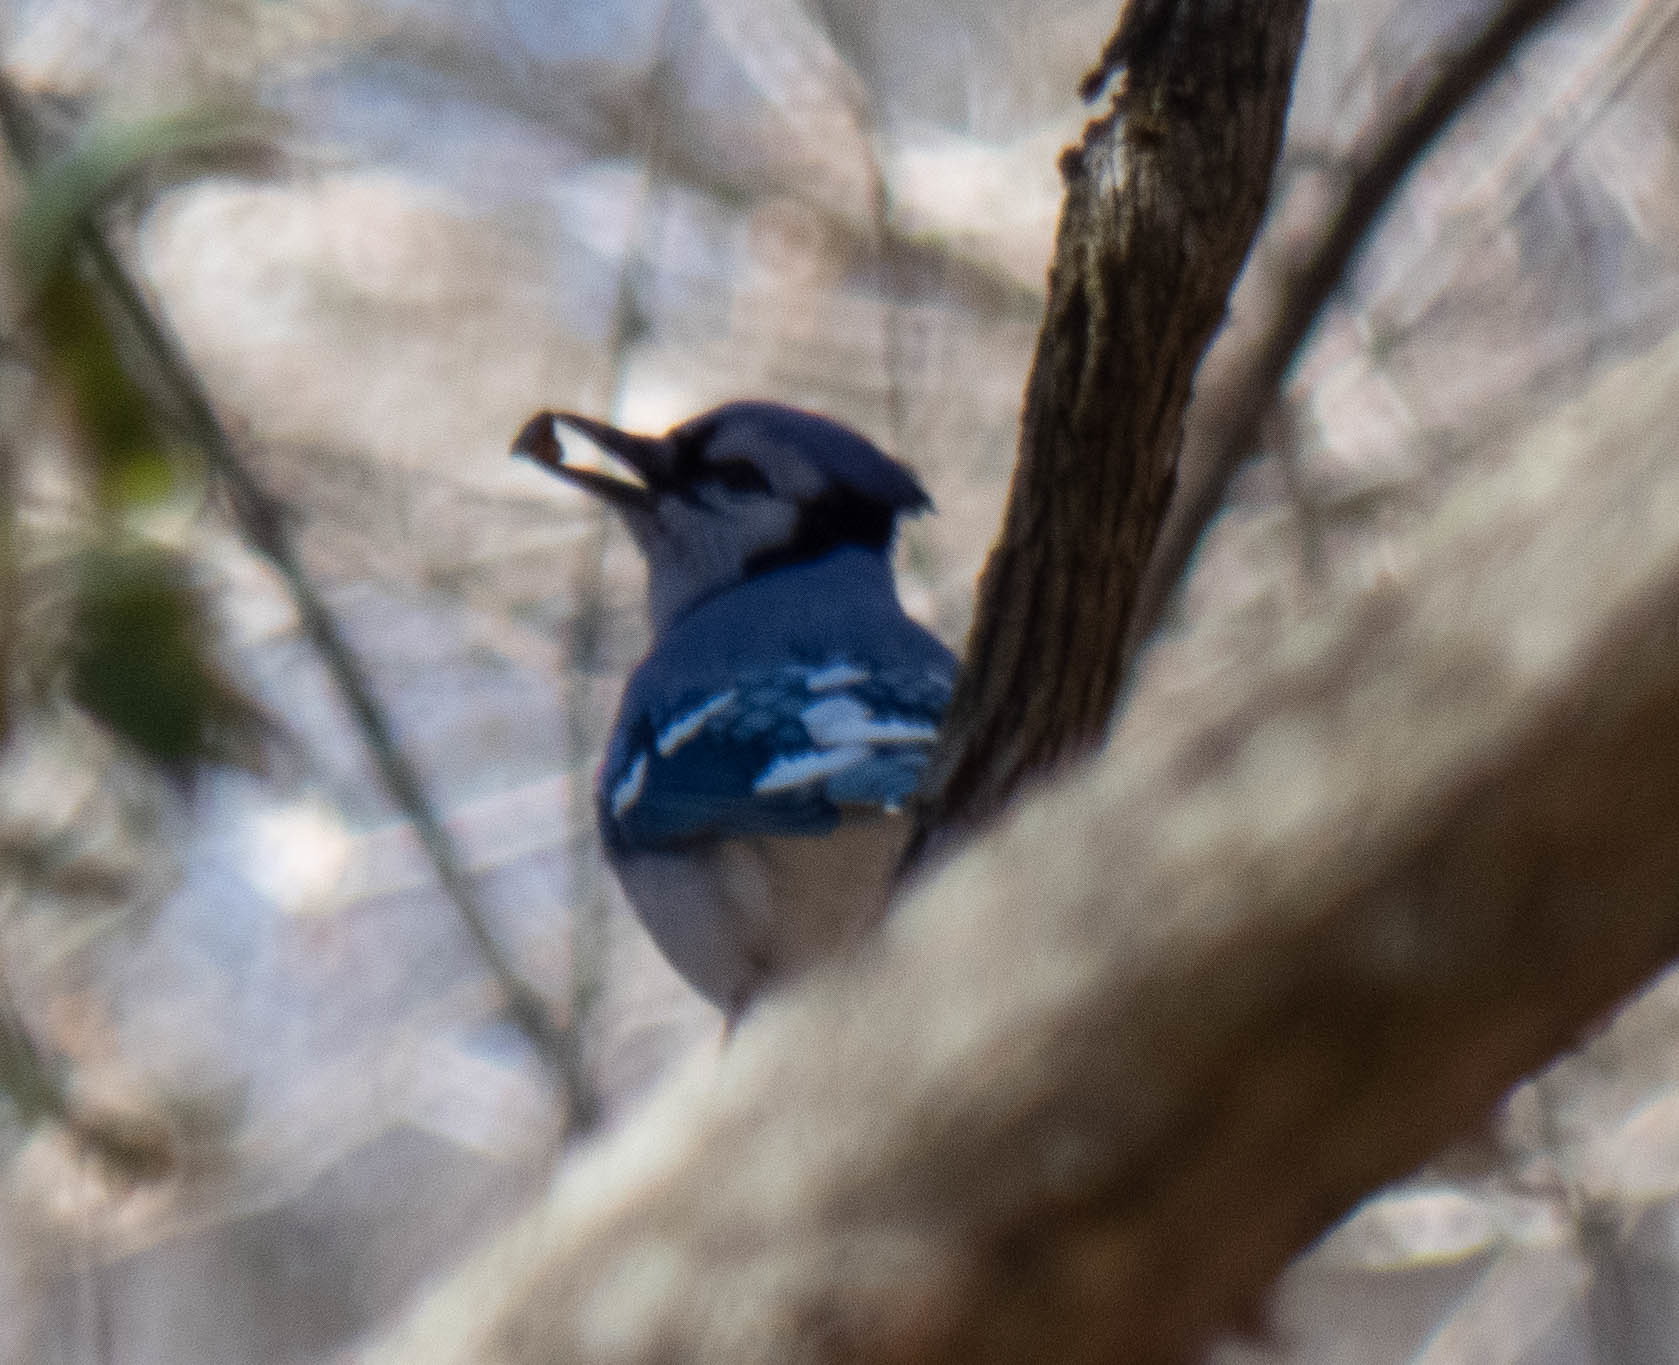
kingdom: Animalia
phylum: Chordata
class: Aves
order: Passeriformes
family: Corvidae
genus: Cyanocitta
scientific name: Cyanocitta cristata
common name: Blue jay
